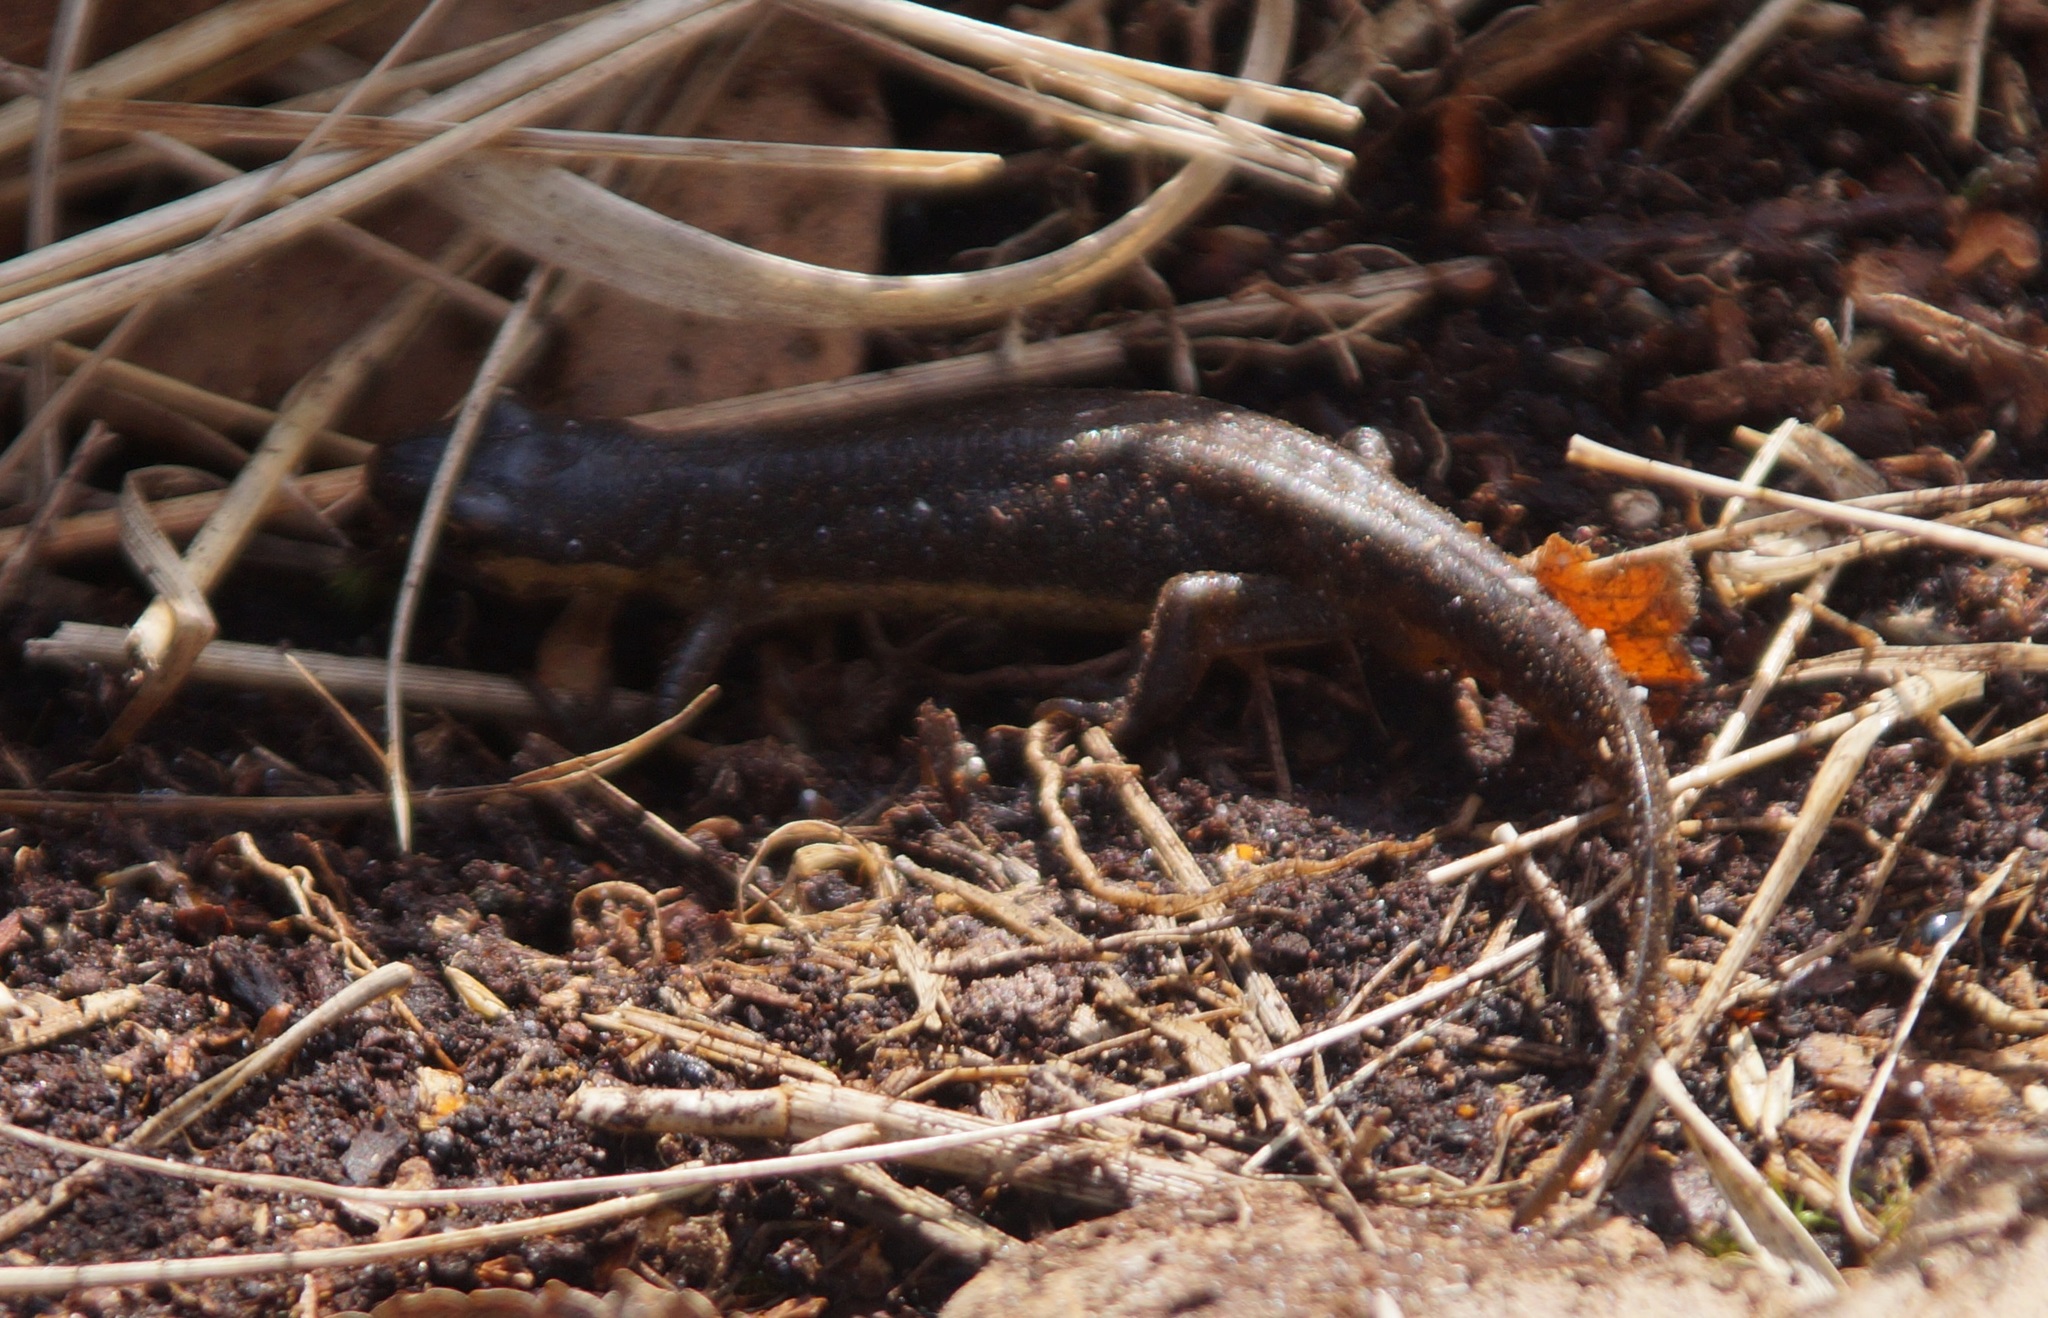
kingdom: Animalia
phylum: Chordata
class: Amphibia
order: Caudata
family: Salamandridae
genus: Lissotriton
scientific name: Lissotriton vulgaris
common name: Smooth newt
